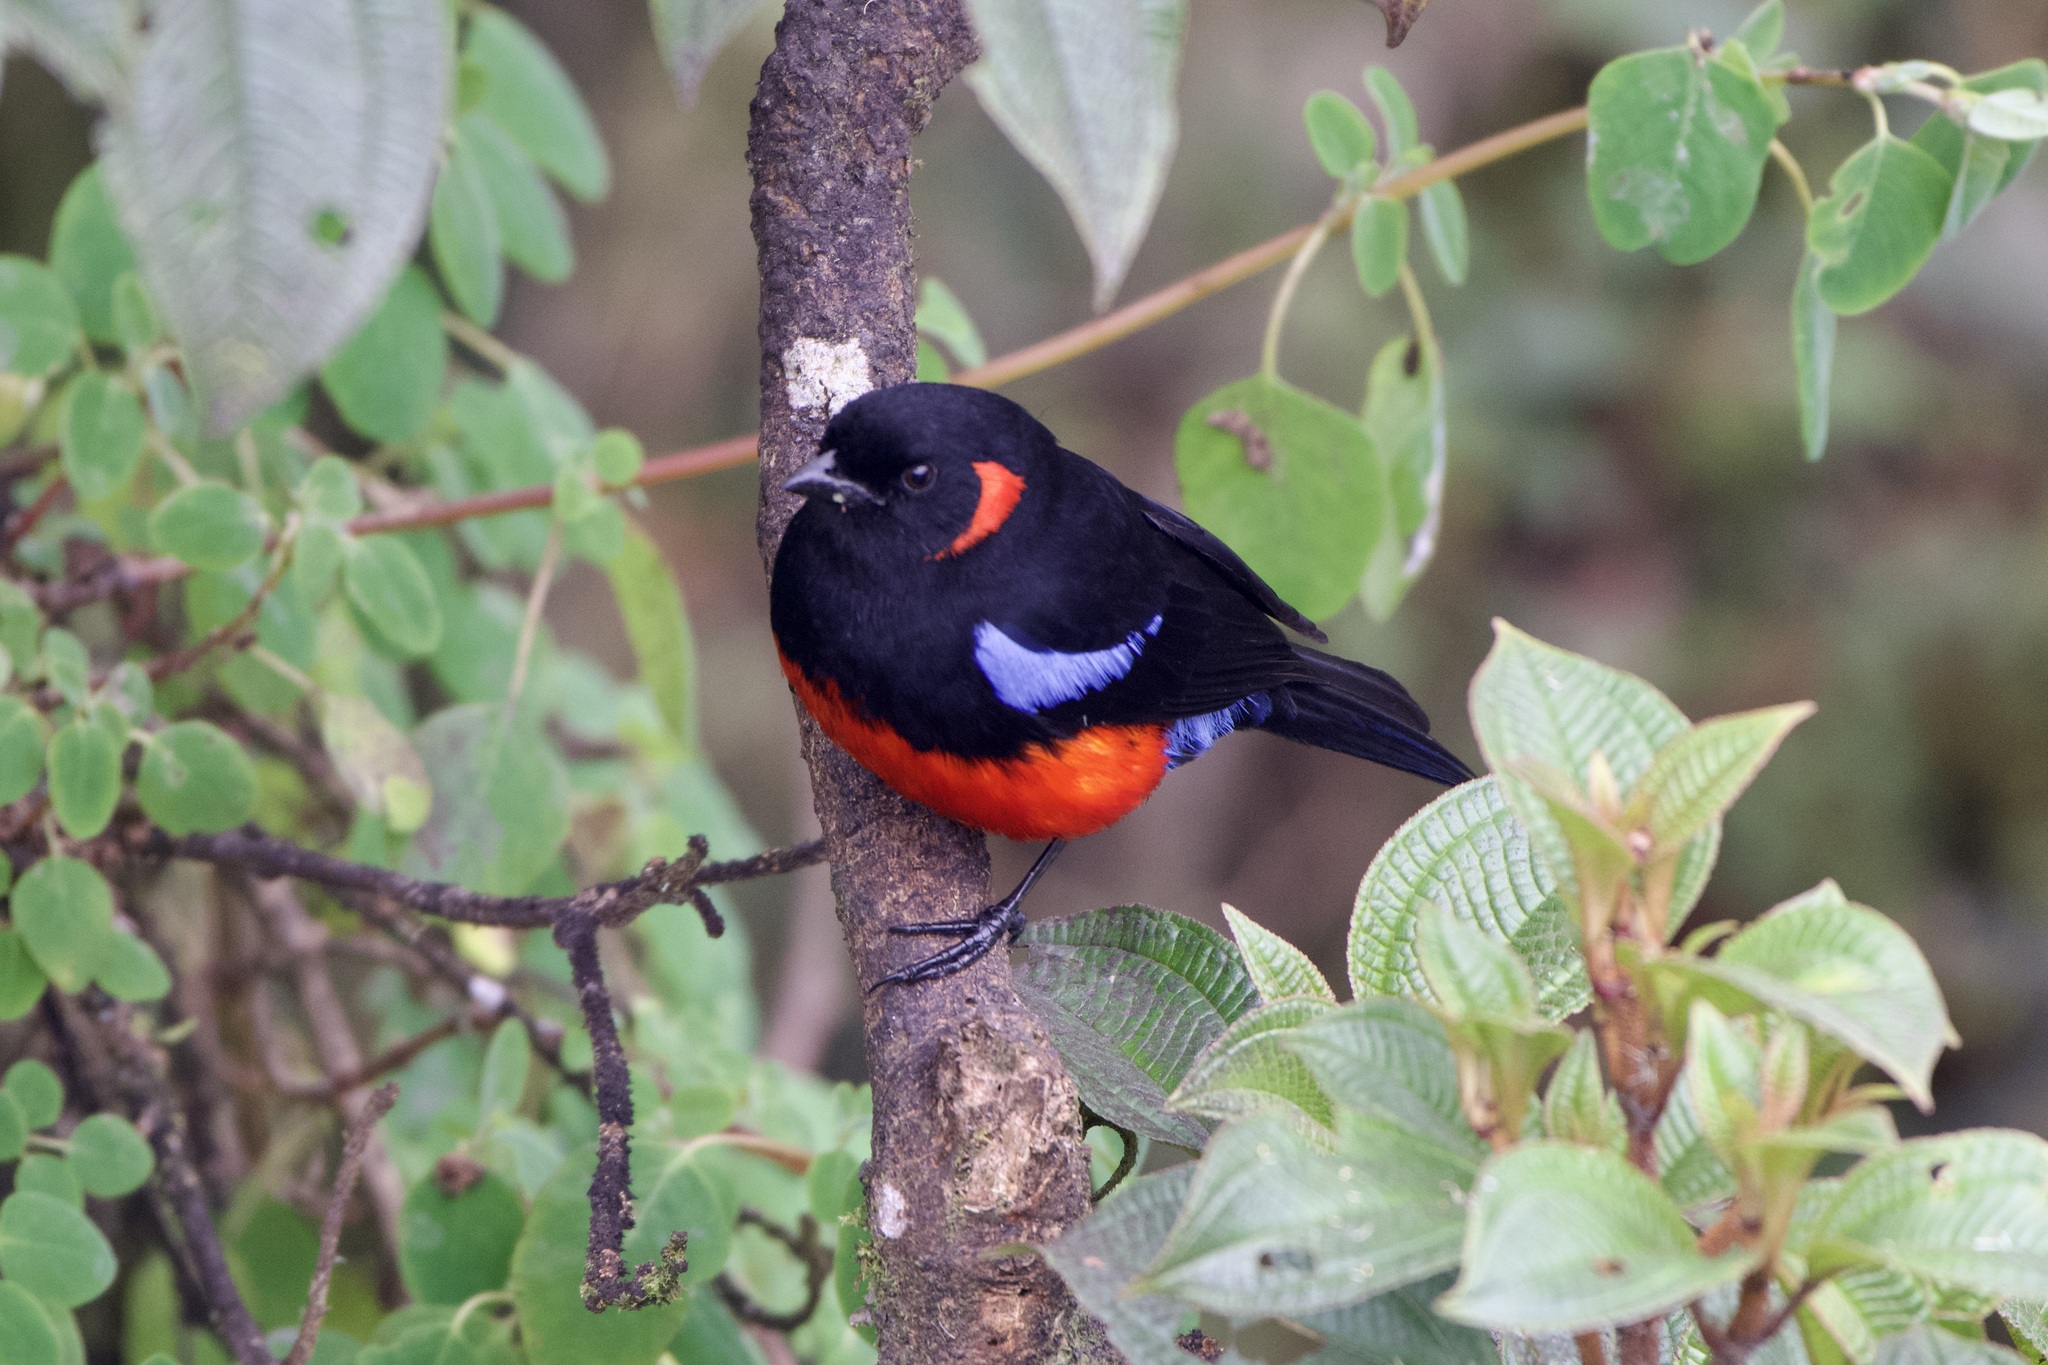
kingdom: Animalia
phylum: Chordata
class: Aves
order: Passeriformes
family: Thraupidae
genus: Anisognathus
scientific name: Anisognathus igniventris
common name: Scarlet-bellied mountain tanager
